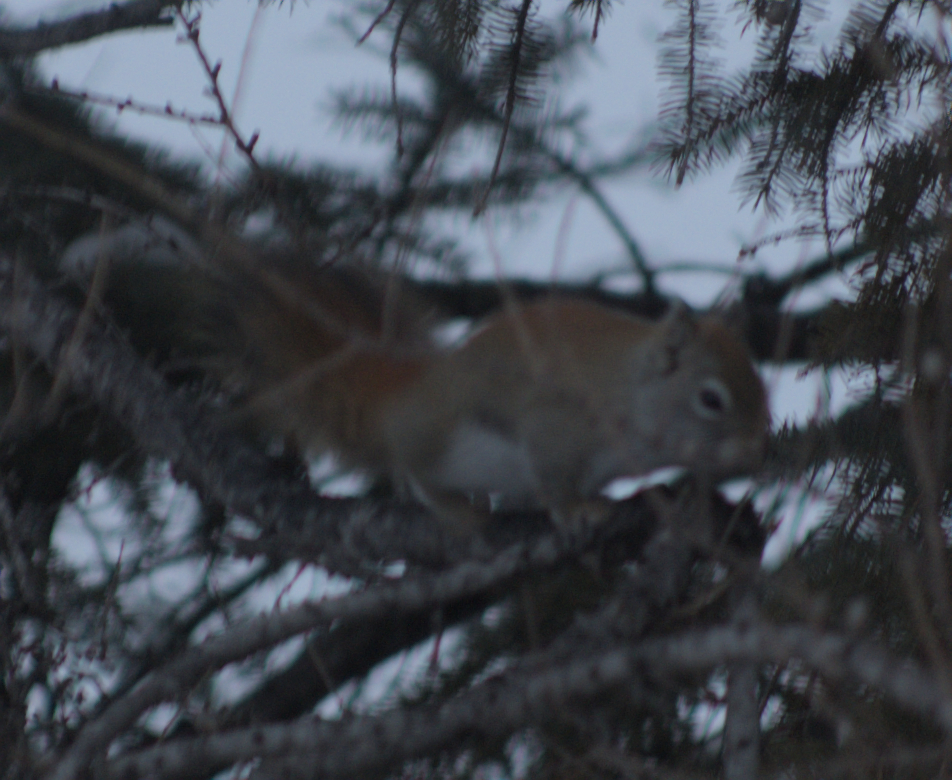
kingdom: Animalia
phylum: Chordata
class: Mammalia
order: Rodentia
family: Sciuridae
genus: Tamiasciurus
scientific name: Tamiasciurus hudsonicus
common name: Red squirrel
